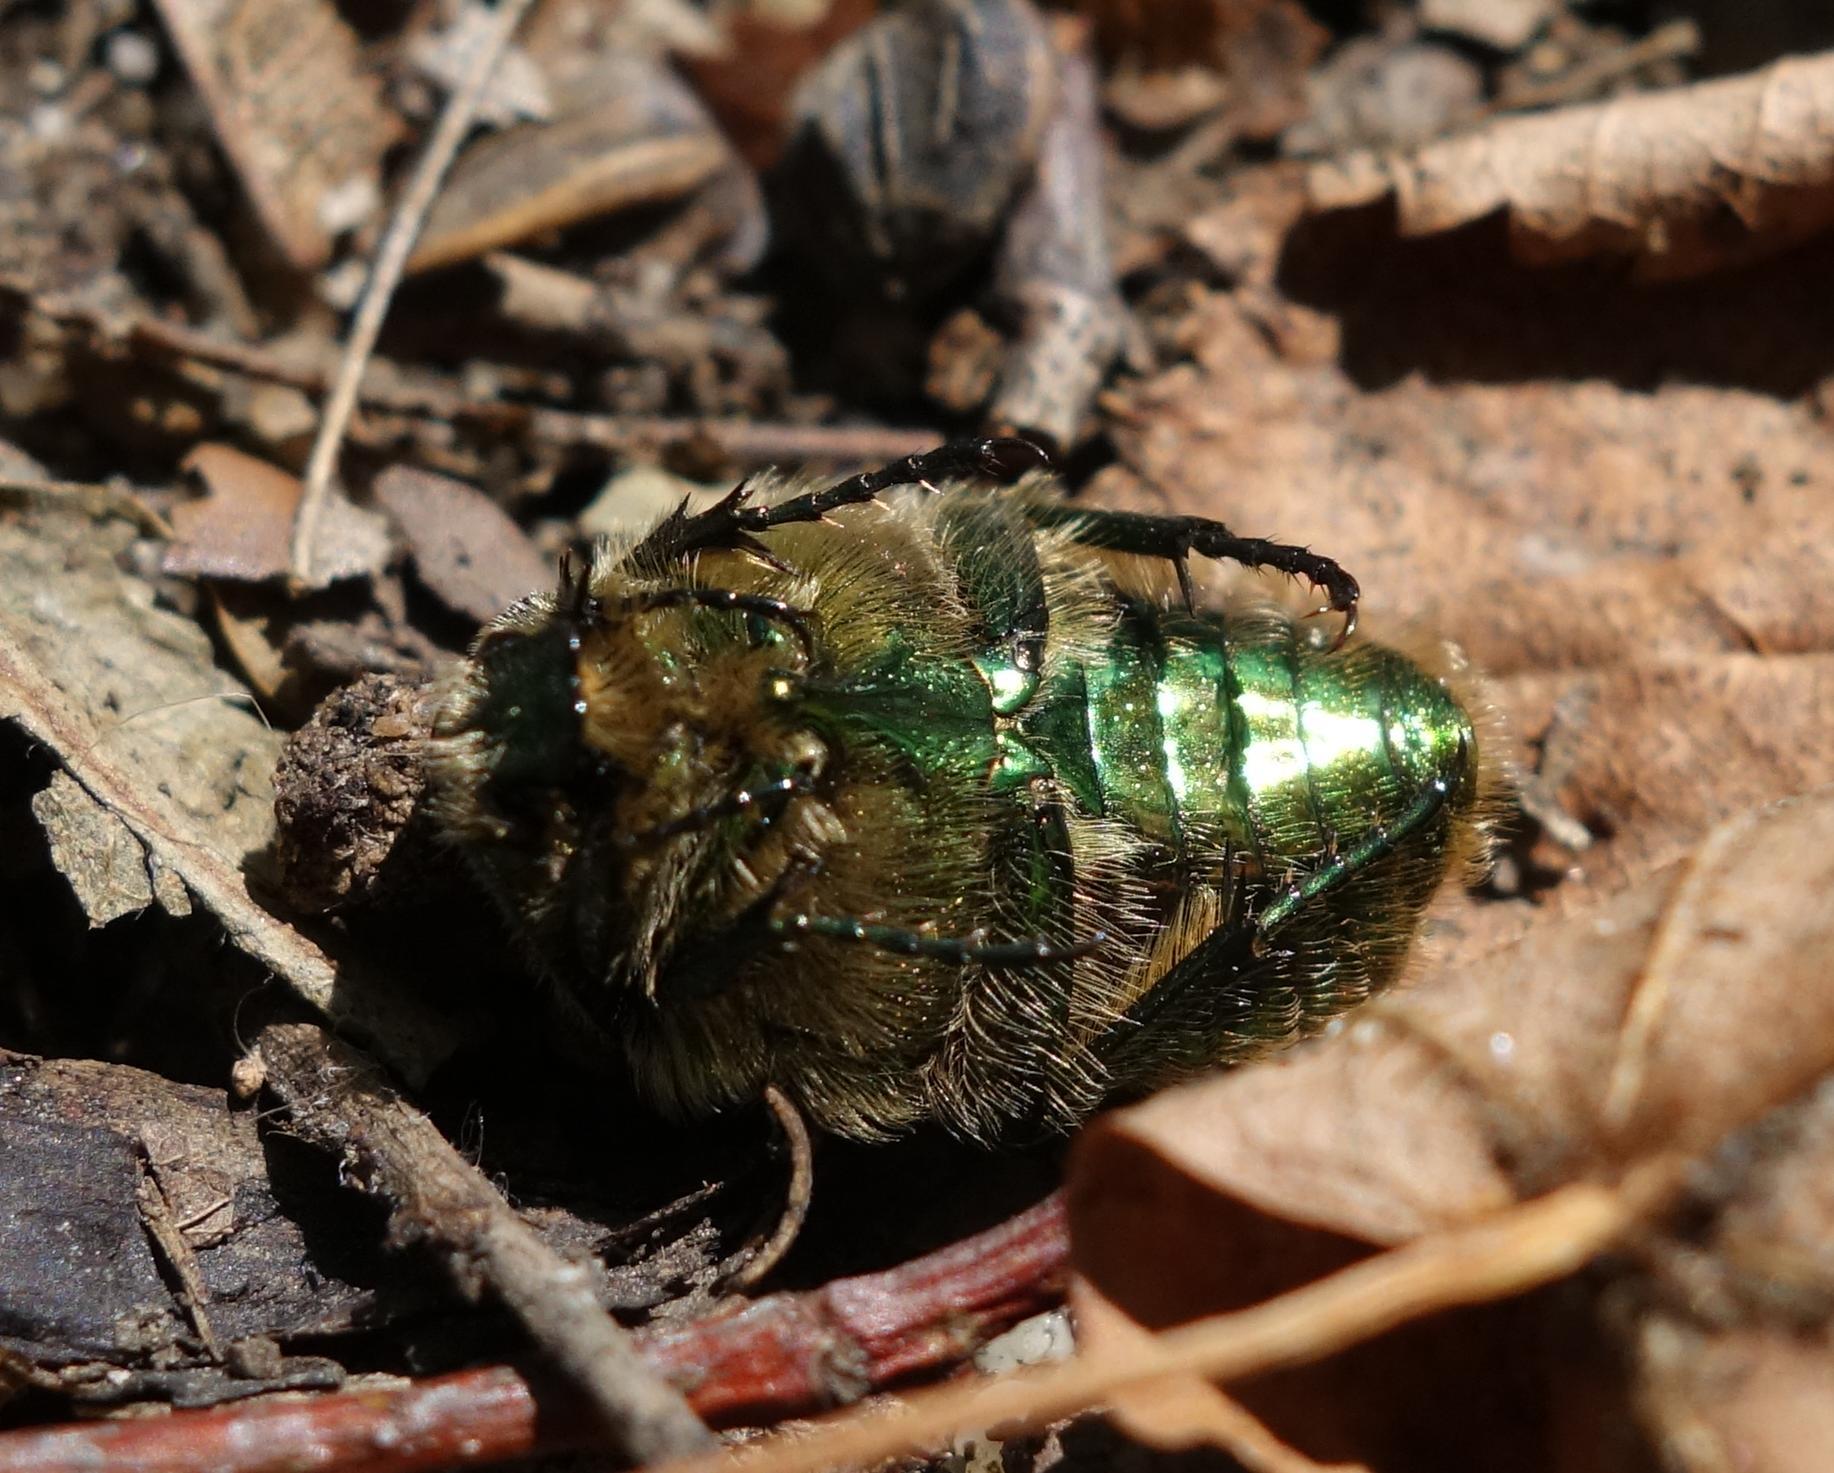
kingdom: Animalia
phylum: Arthropoda
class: Insecta
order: Coleoptera
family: Scarabaeidae
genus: Cetonia
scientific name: Cetonia aurata
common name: Rose chafer
